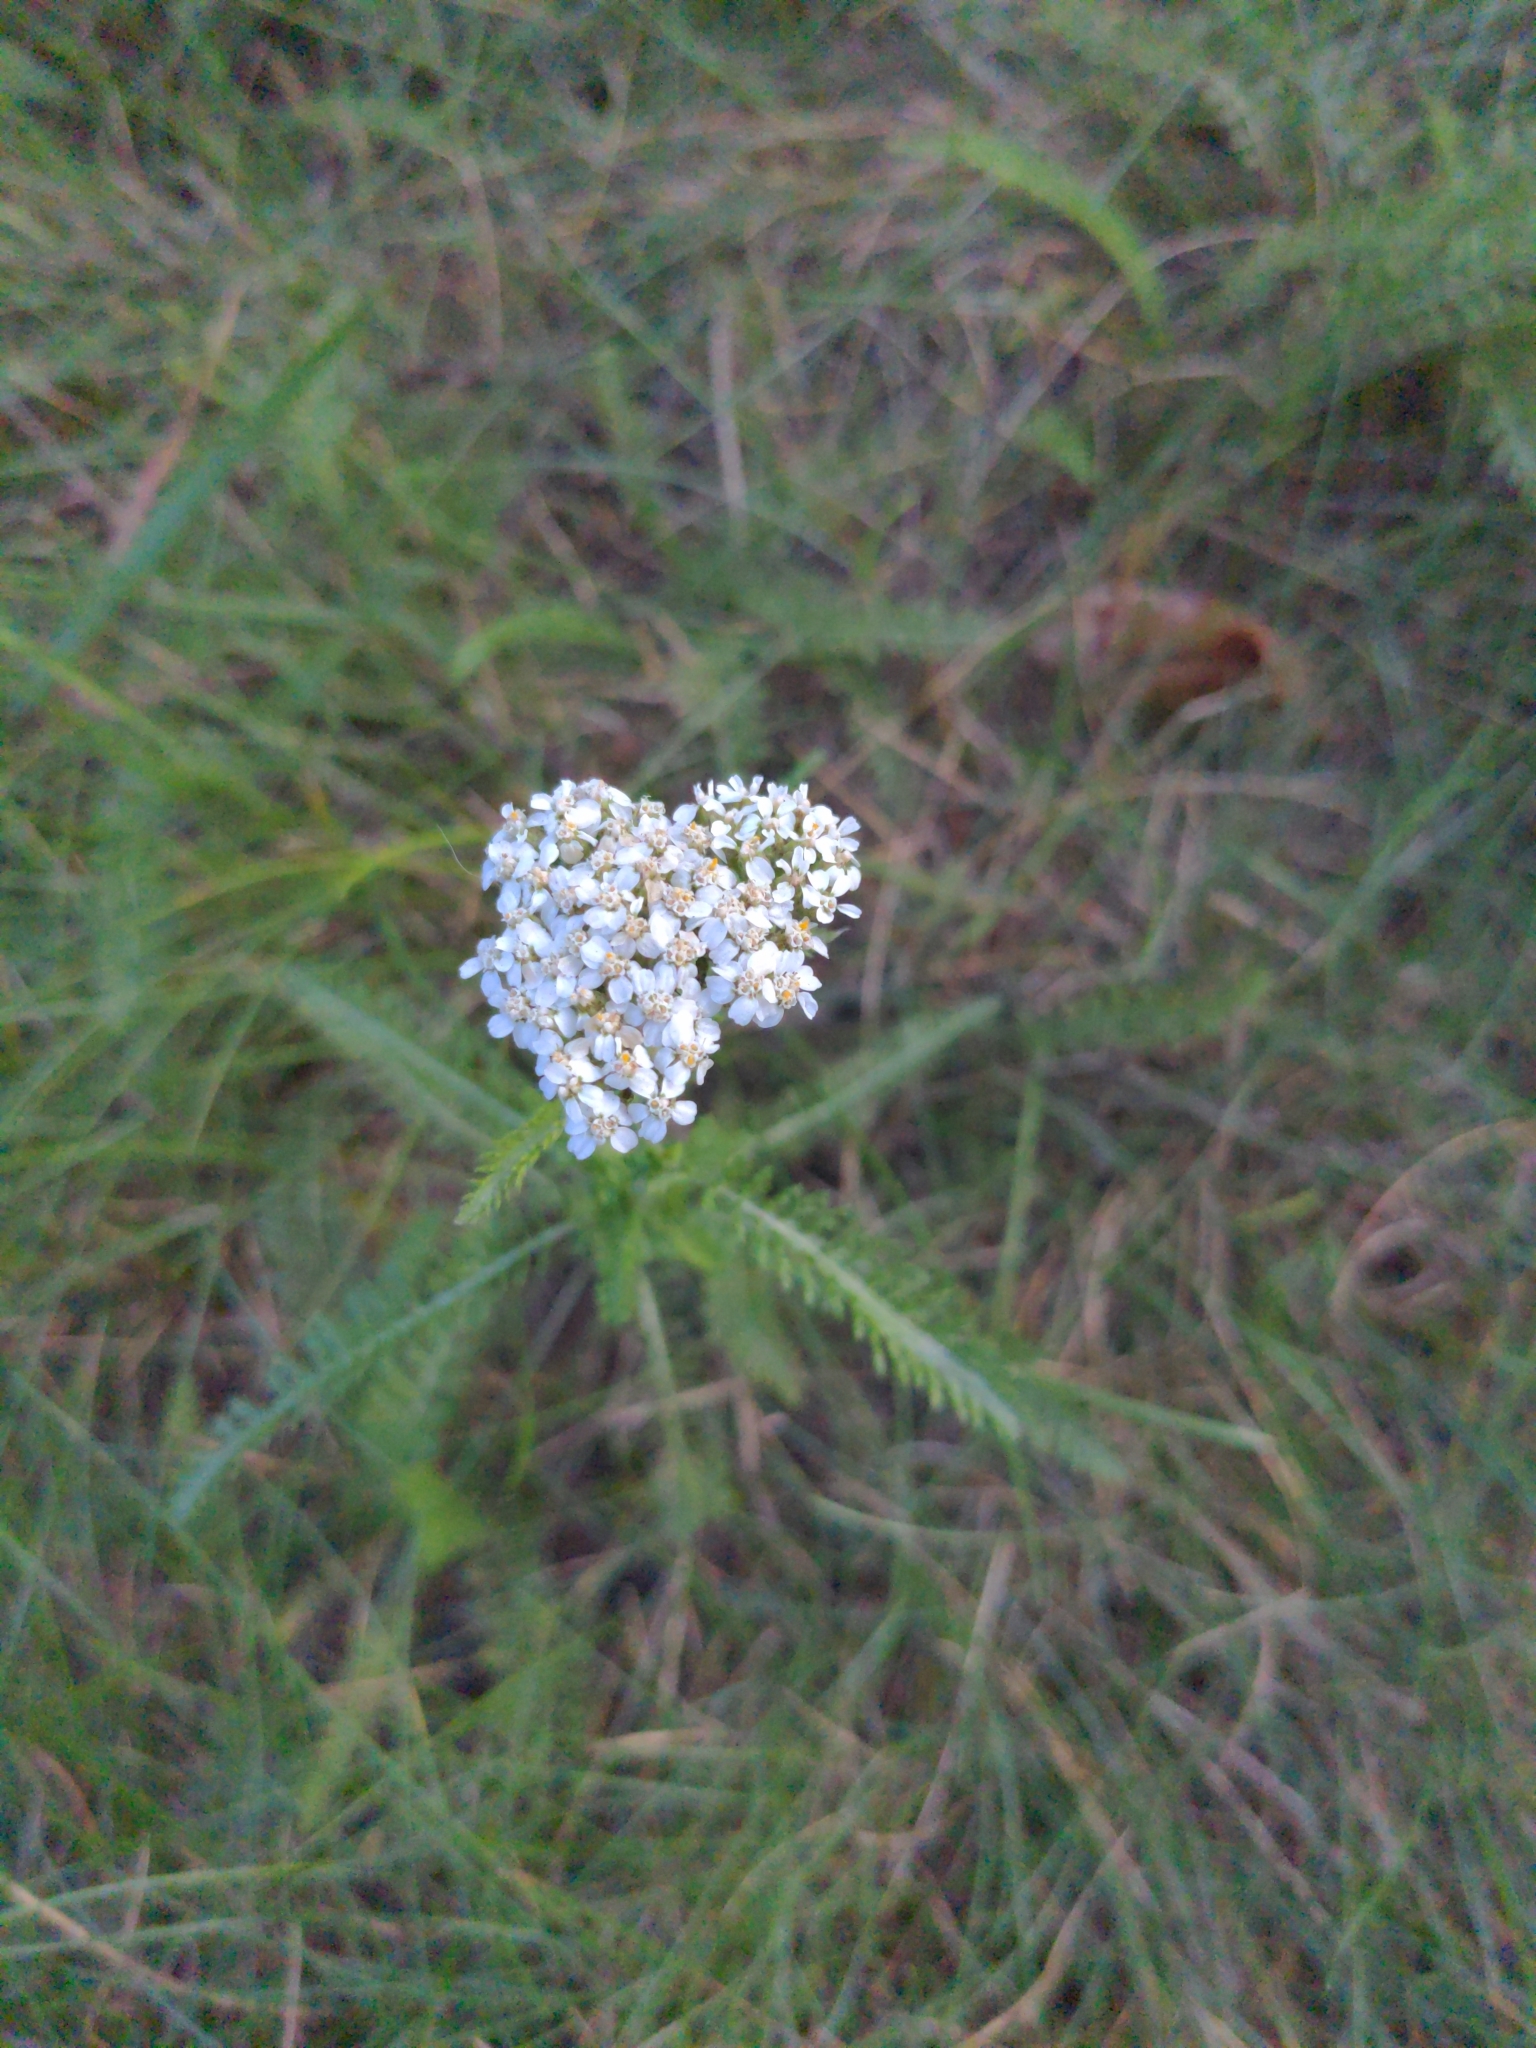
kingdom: Plantae
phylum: Tracheophyta
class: Magnoliopsida
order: Asterales
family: Asteraceae
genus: Achillea
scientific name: Achillea millefolium
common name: Yarrow
